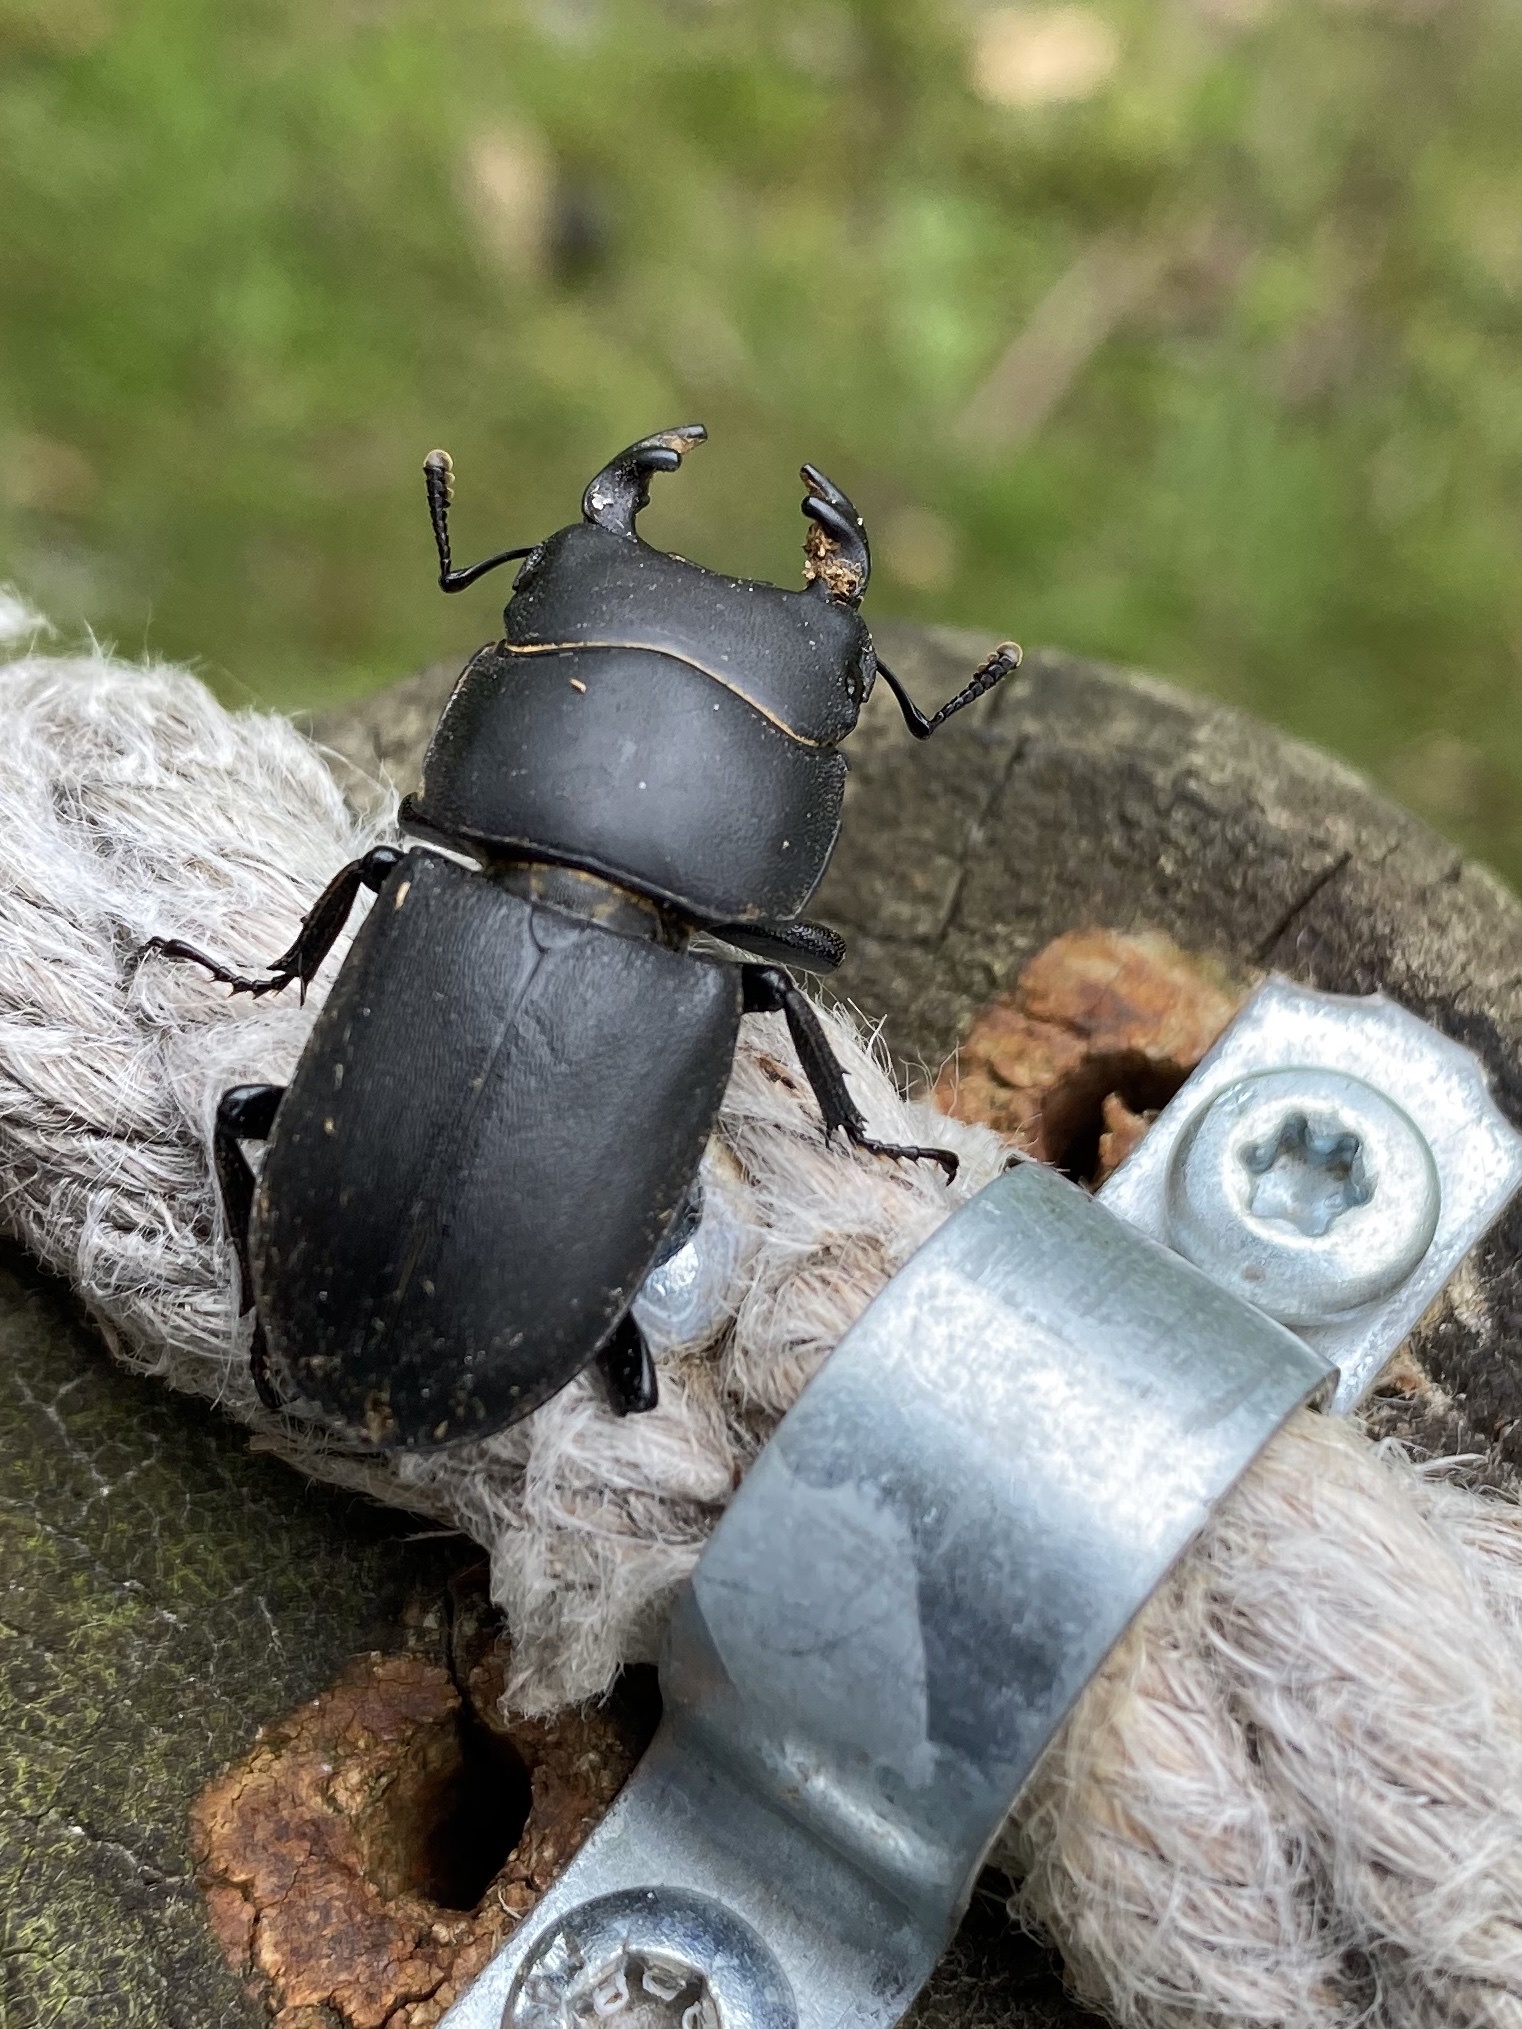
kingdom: Animalia
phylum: Arthropoda
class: Insecta
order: Coleoptera
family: Lucanidae
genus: Dorcus
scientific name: Dorcus parallelipipedus
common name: Lesser stag beetle
